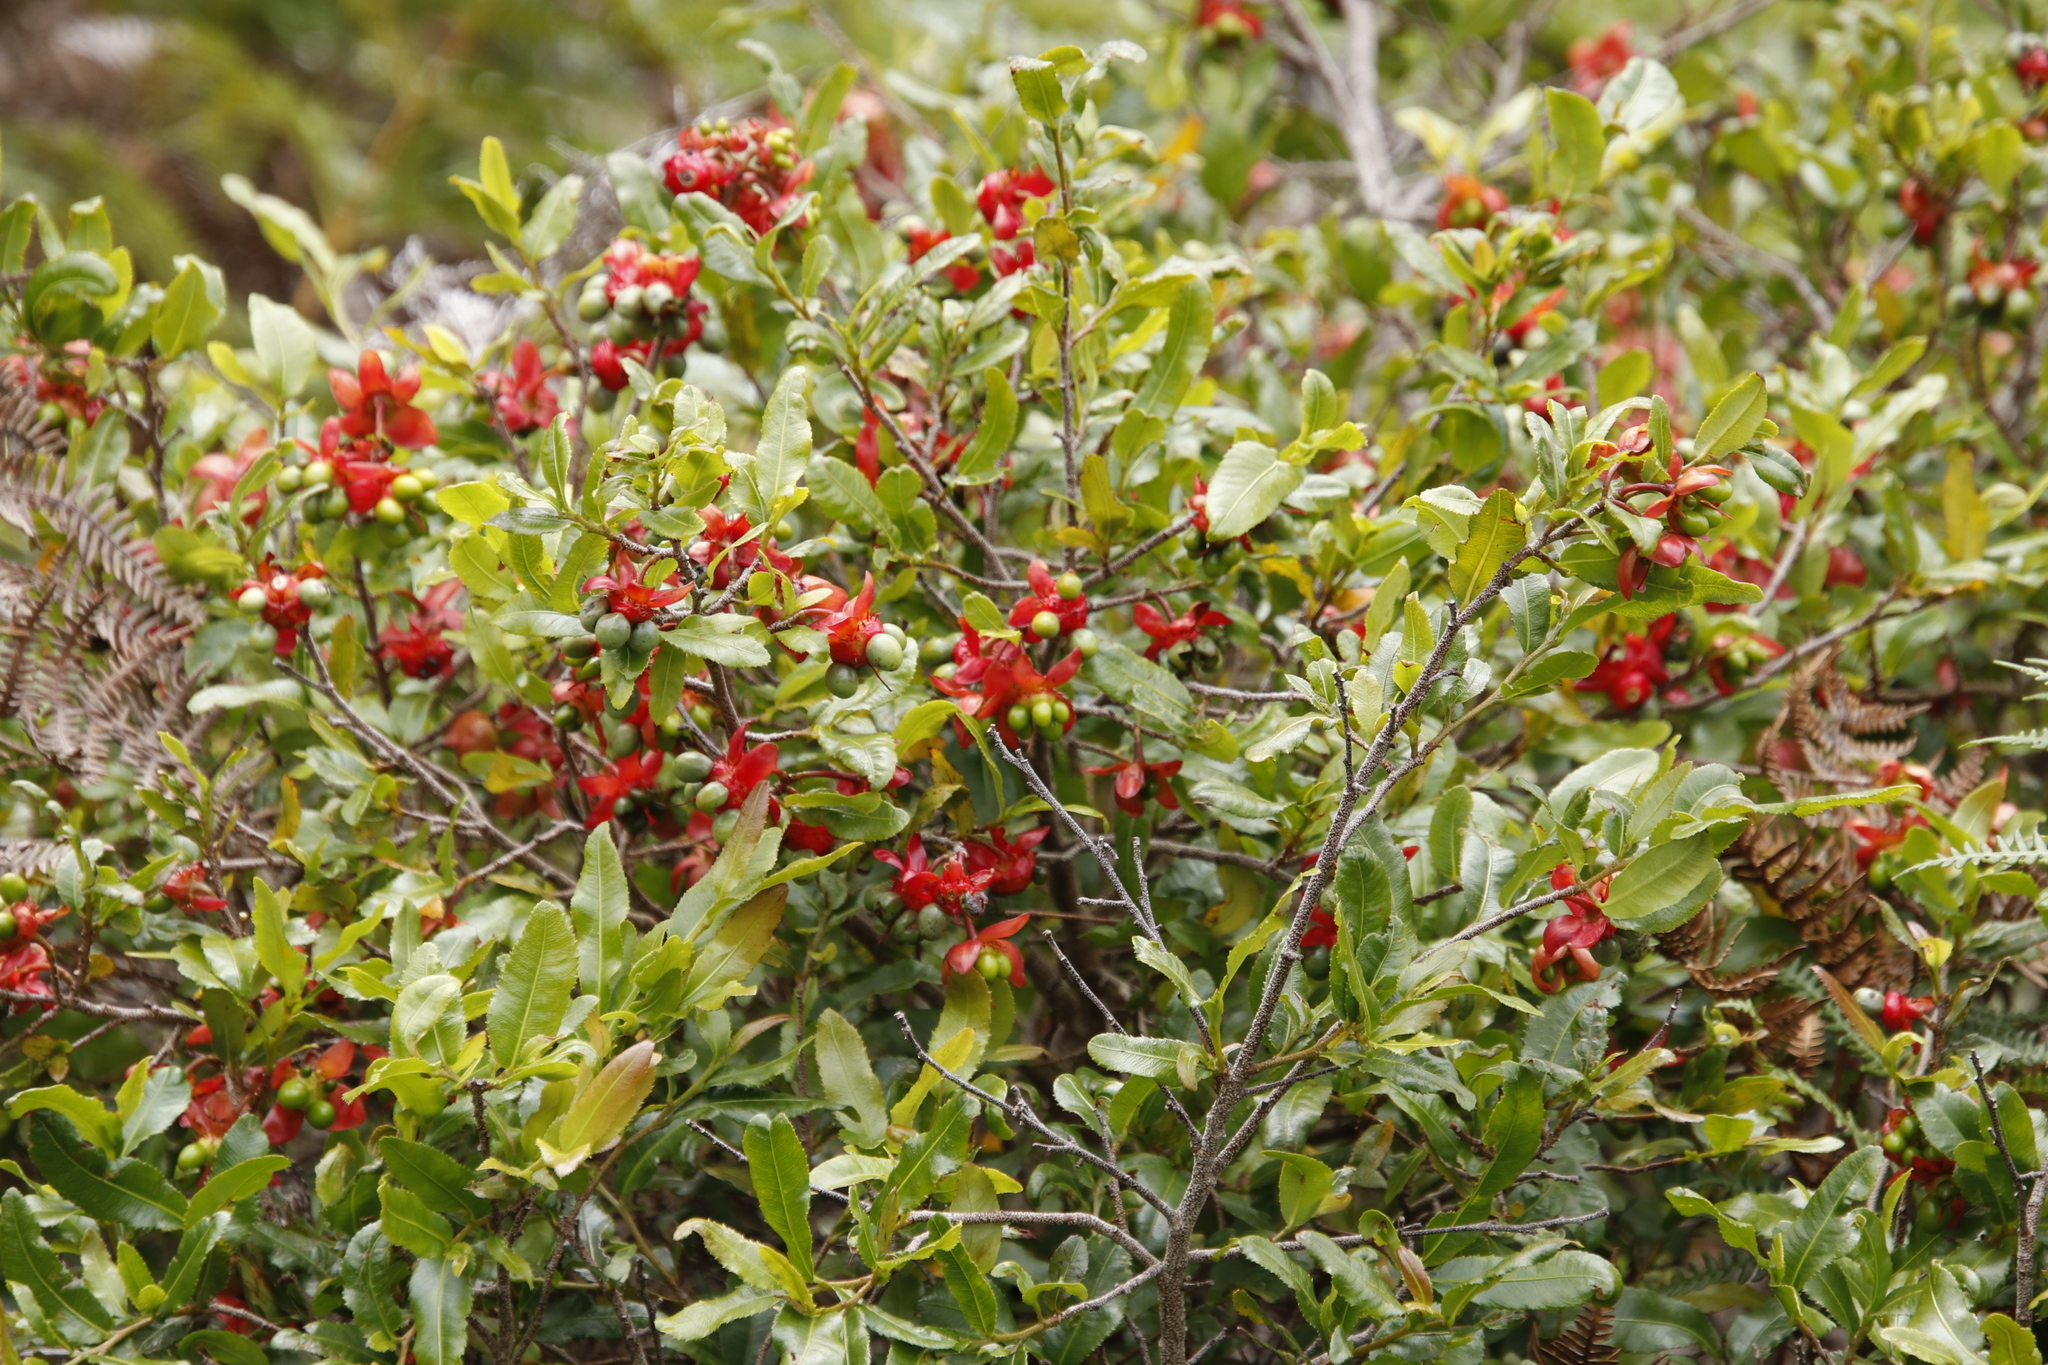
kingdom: Plantae
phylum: Tracheophyta
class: Magnoliopsida
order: Malpighiales
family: Ochnaceae
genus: Ochna
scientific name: Ochna serrulata
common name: Mickey mouse plant
